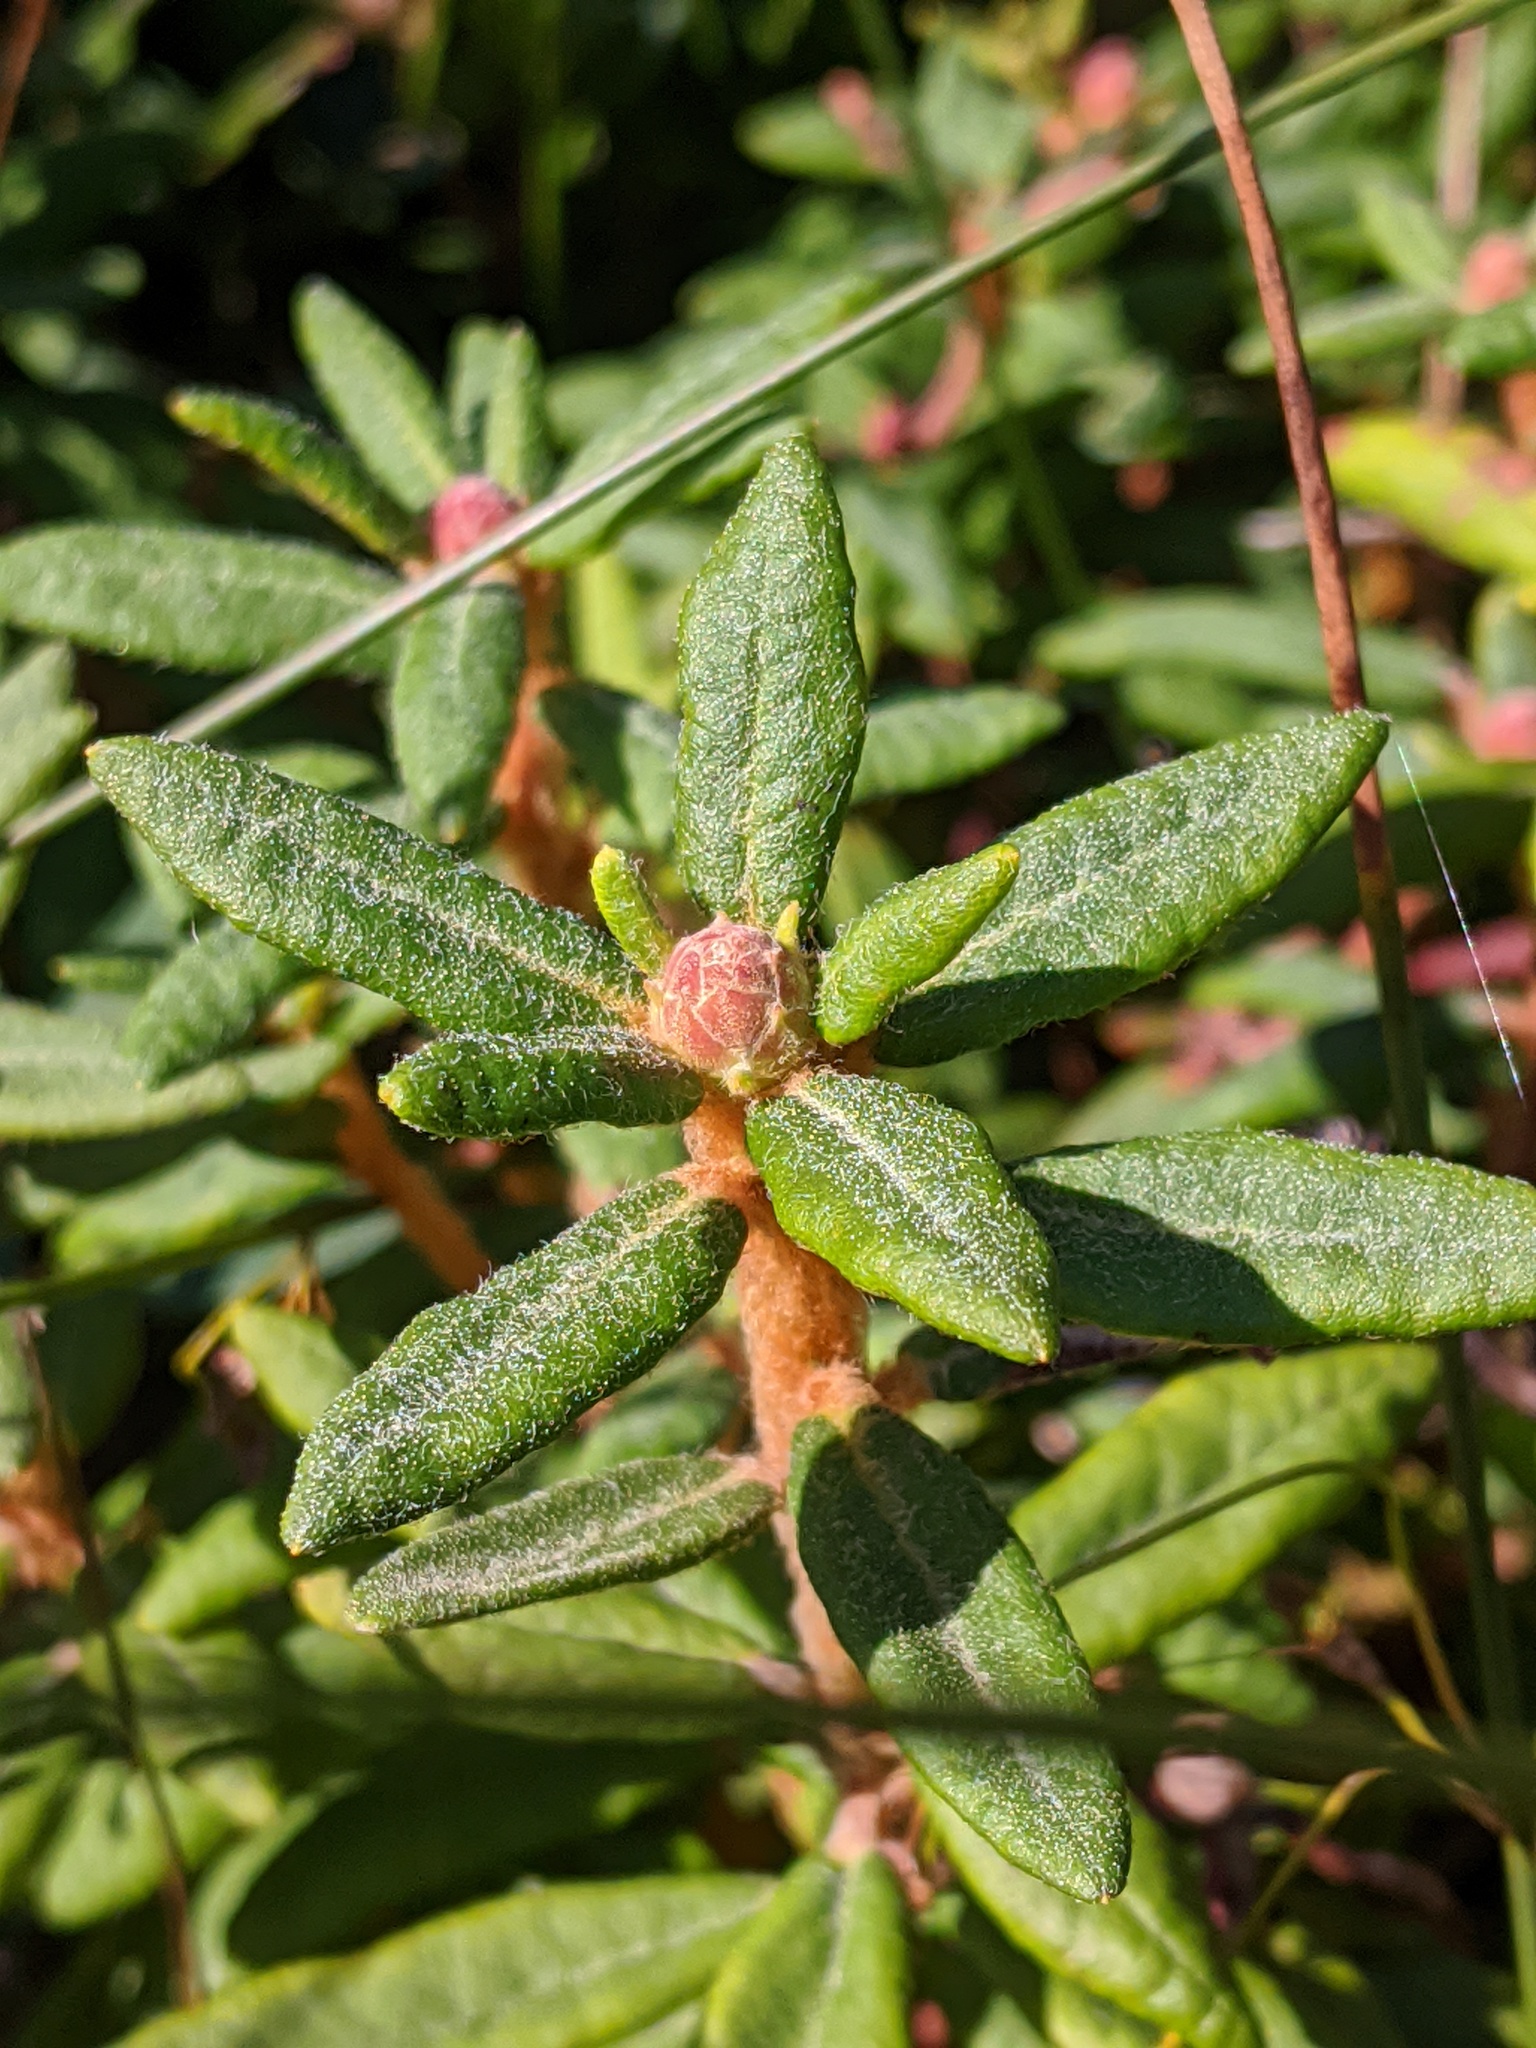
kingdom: Plantae
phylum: Tracheophyta
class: Magnoliopsida
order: Ericales
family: Ericaceae
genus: Rhododendron
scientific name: Rhododendron groenlandicum
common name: Bog labrador tea
